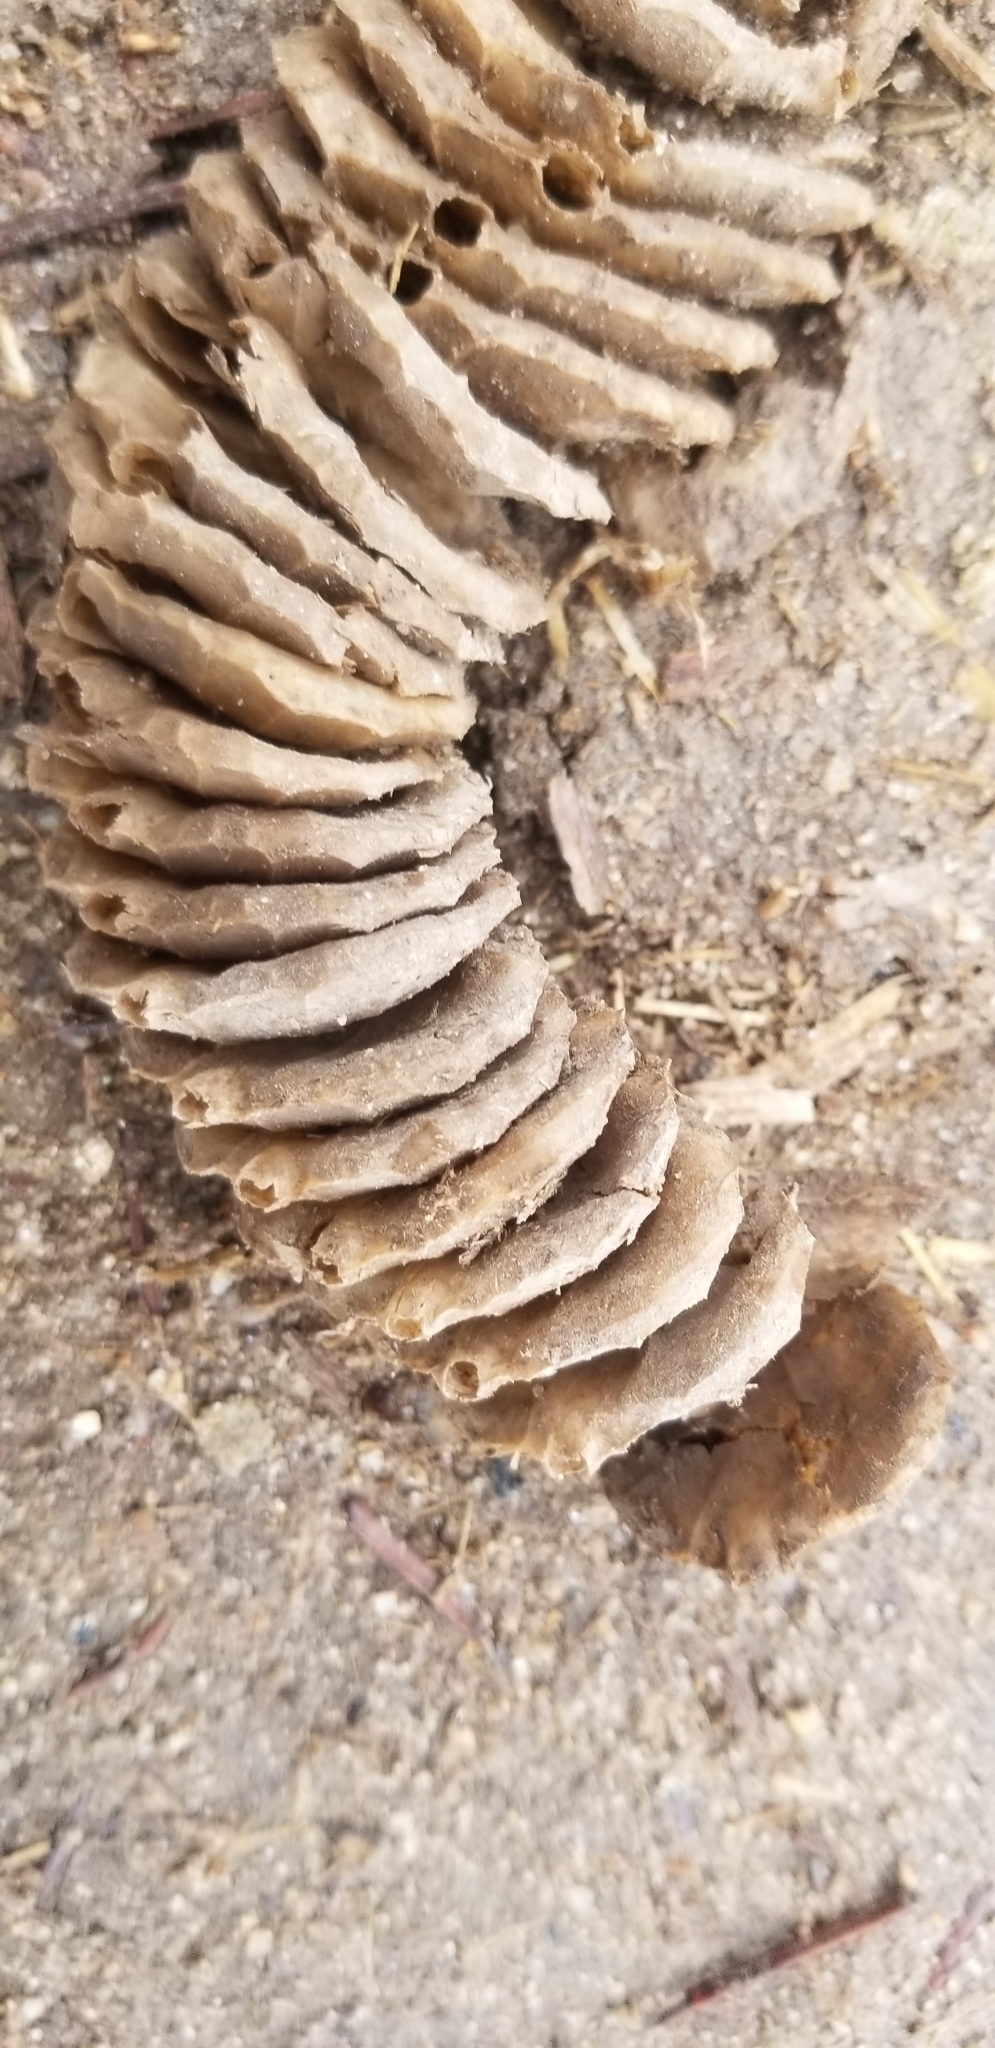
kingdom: Animalia
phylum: Mollusca
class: Gastropoda
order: Neogastropoda
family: Busyconidae
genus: Busycotypus
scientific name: Busycotypus canaliculatus
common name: Channeled whelk
